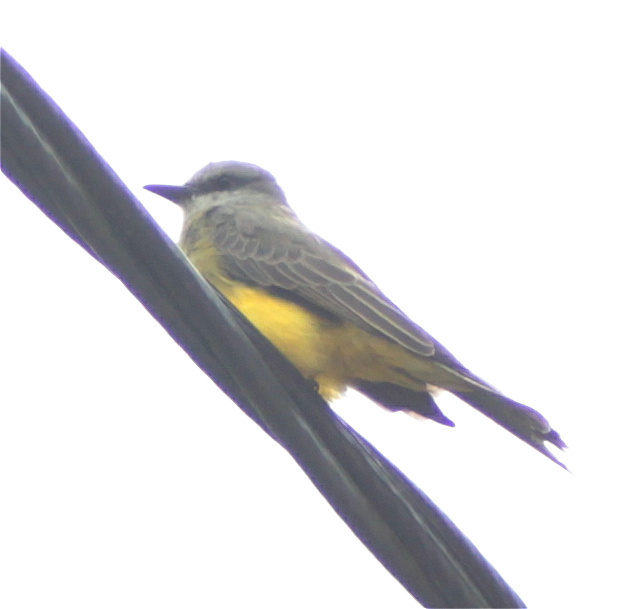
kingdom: Animalia
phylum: Chordata
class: Aves
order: Passeriformes
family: Tyrannidae
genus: Tyrannus
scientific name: Tyrannus melancholicus
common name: Tropical kingbird
